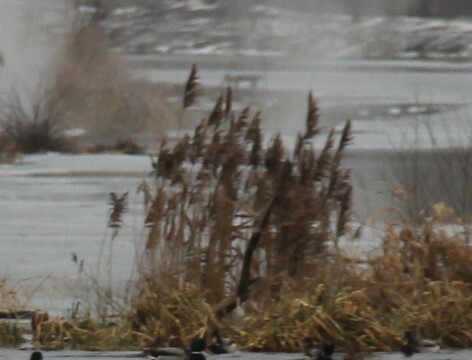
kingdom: Plantae
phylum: Tracheophyta
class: Liliopsida
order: Poales
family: Poaceae
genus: Phragmites
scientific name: Phragmites australis
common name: Common reed
